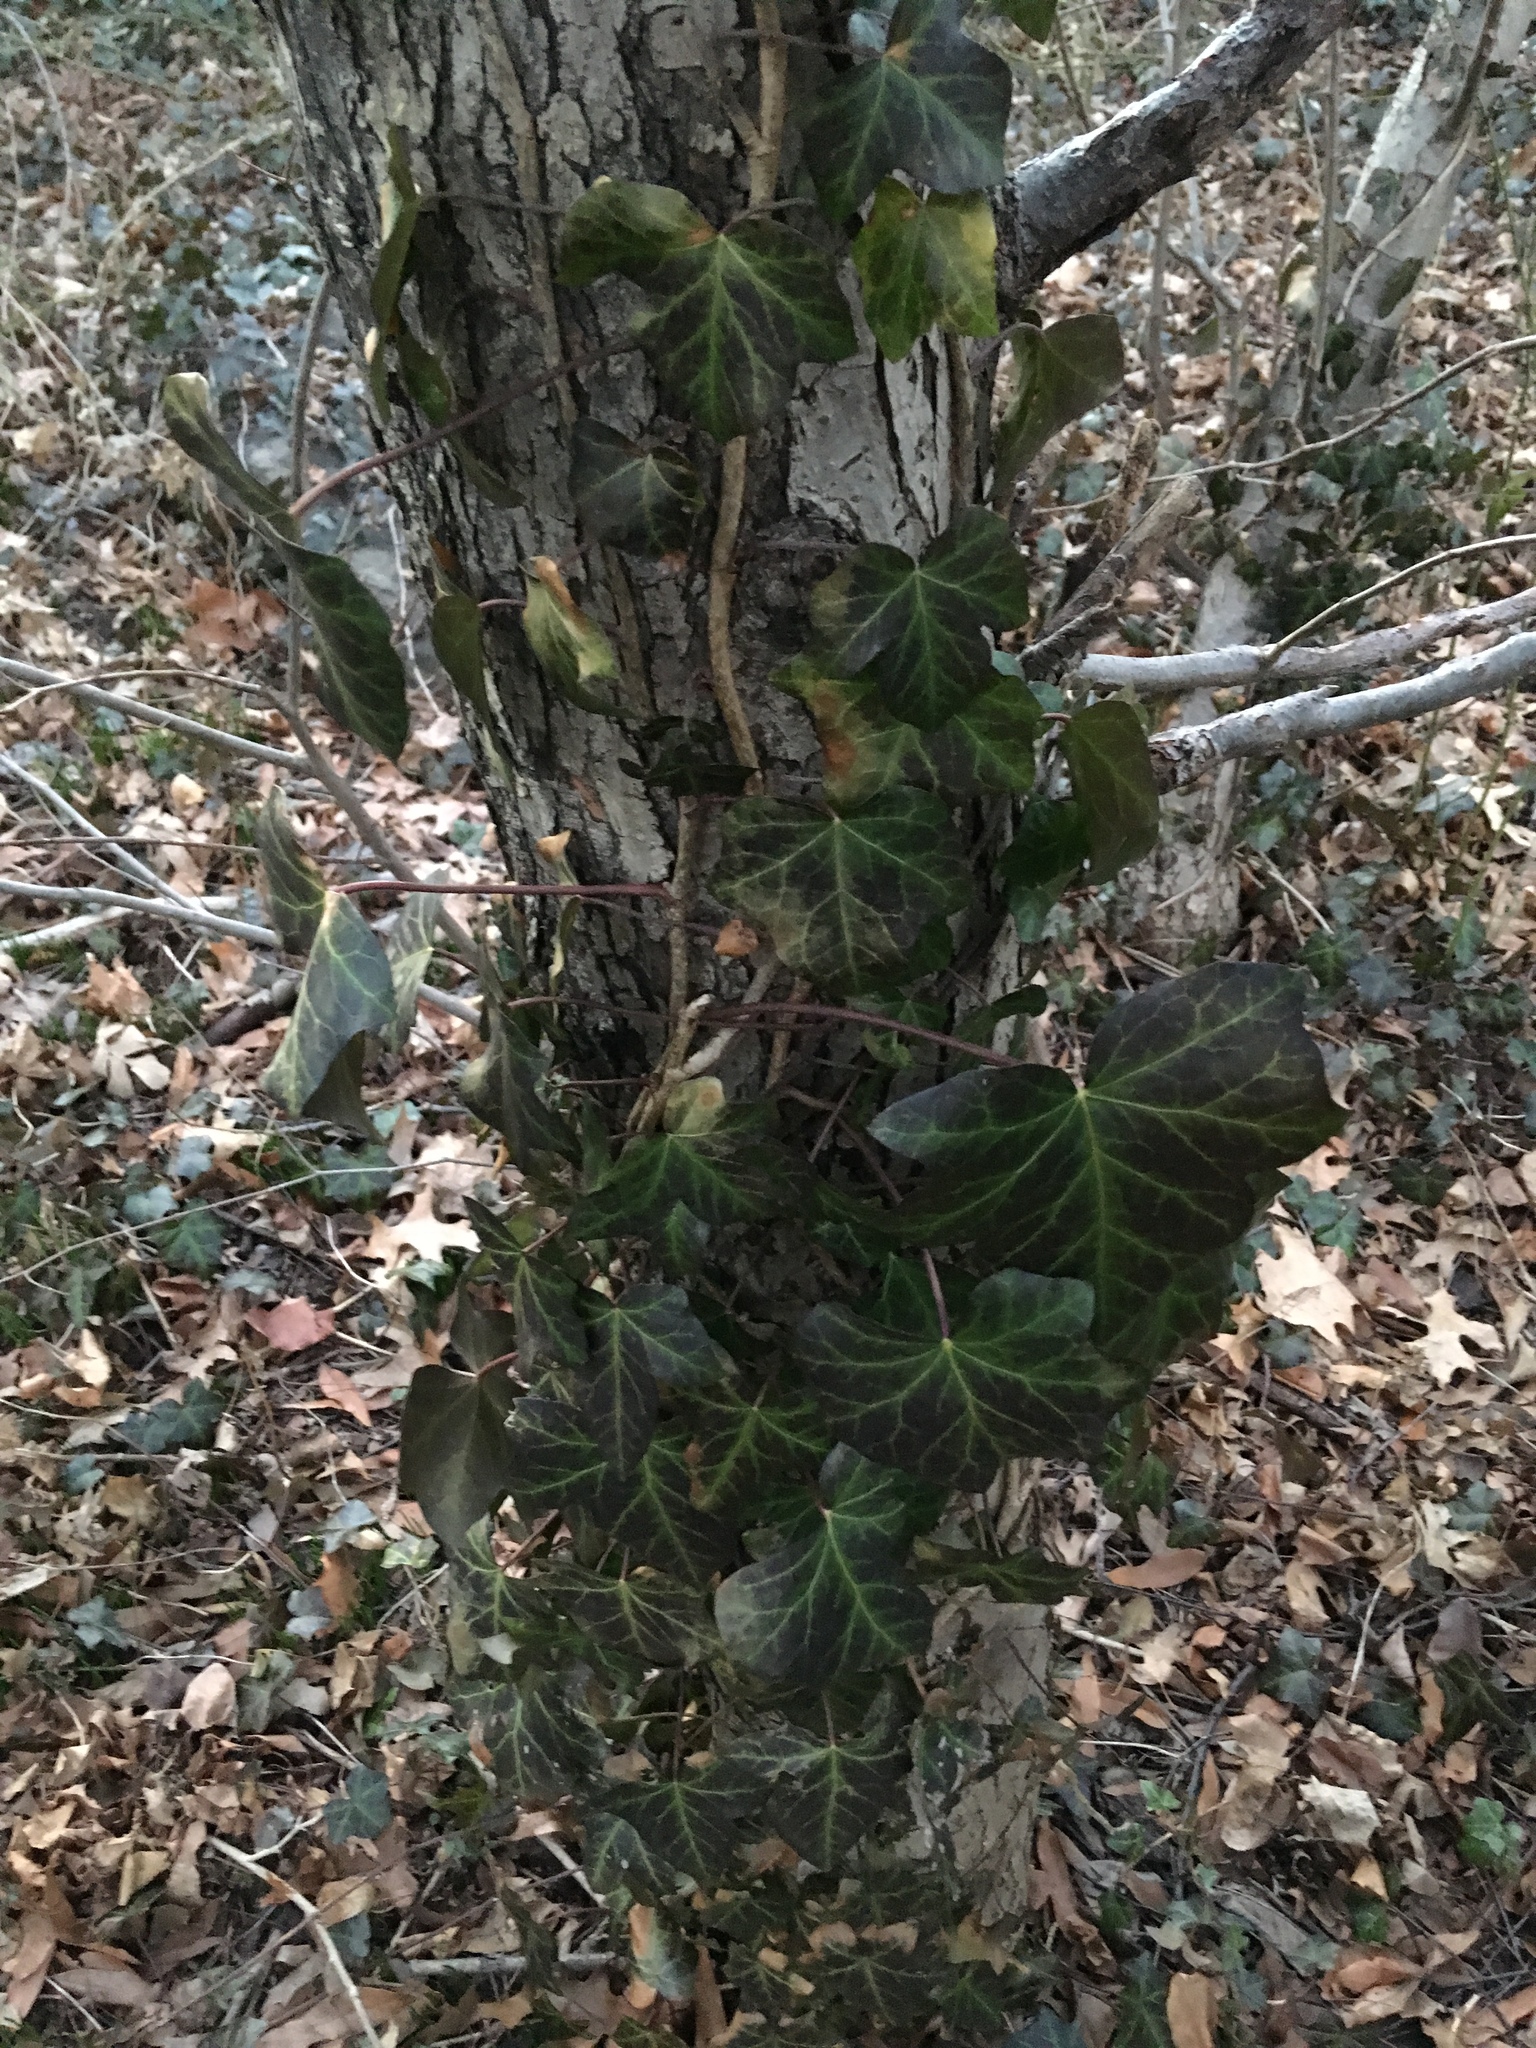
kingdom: Plantae
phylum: Tracheophyta
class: Magnoliopsida
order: Apiales
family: Araliaceae
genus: Hedera
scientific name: Hedera helix
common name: Ivy
